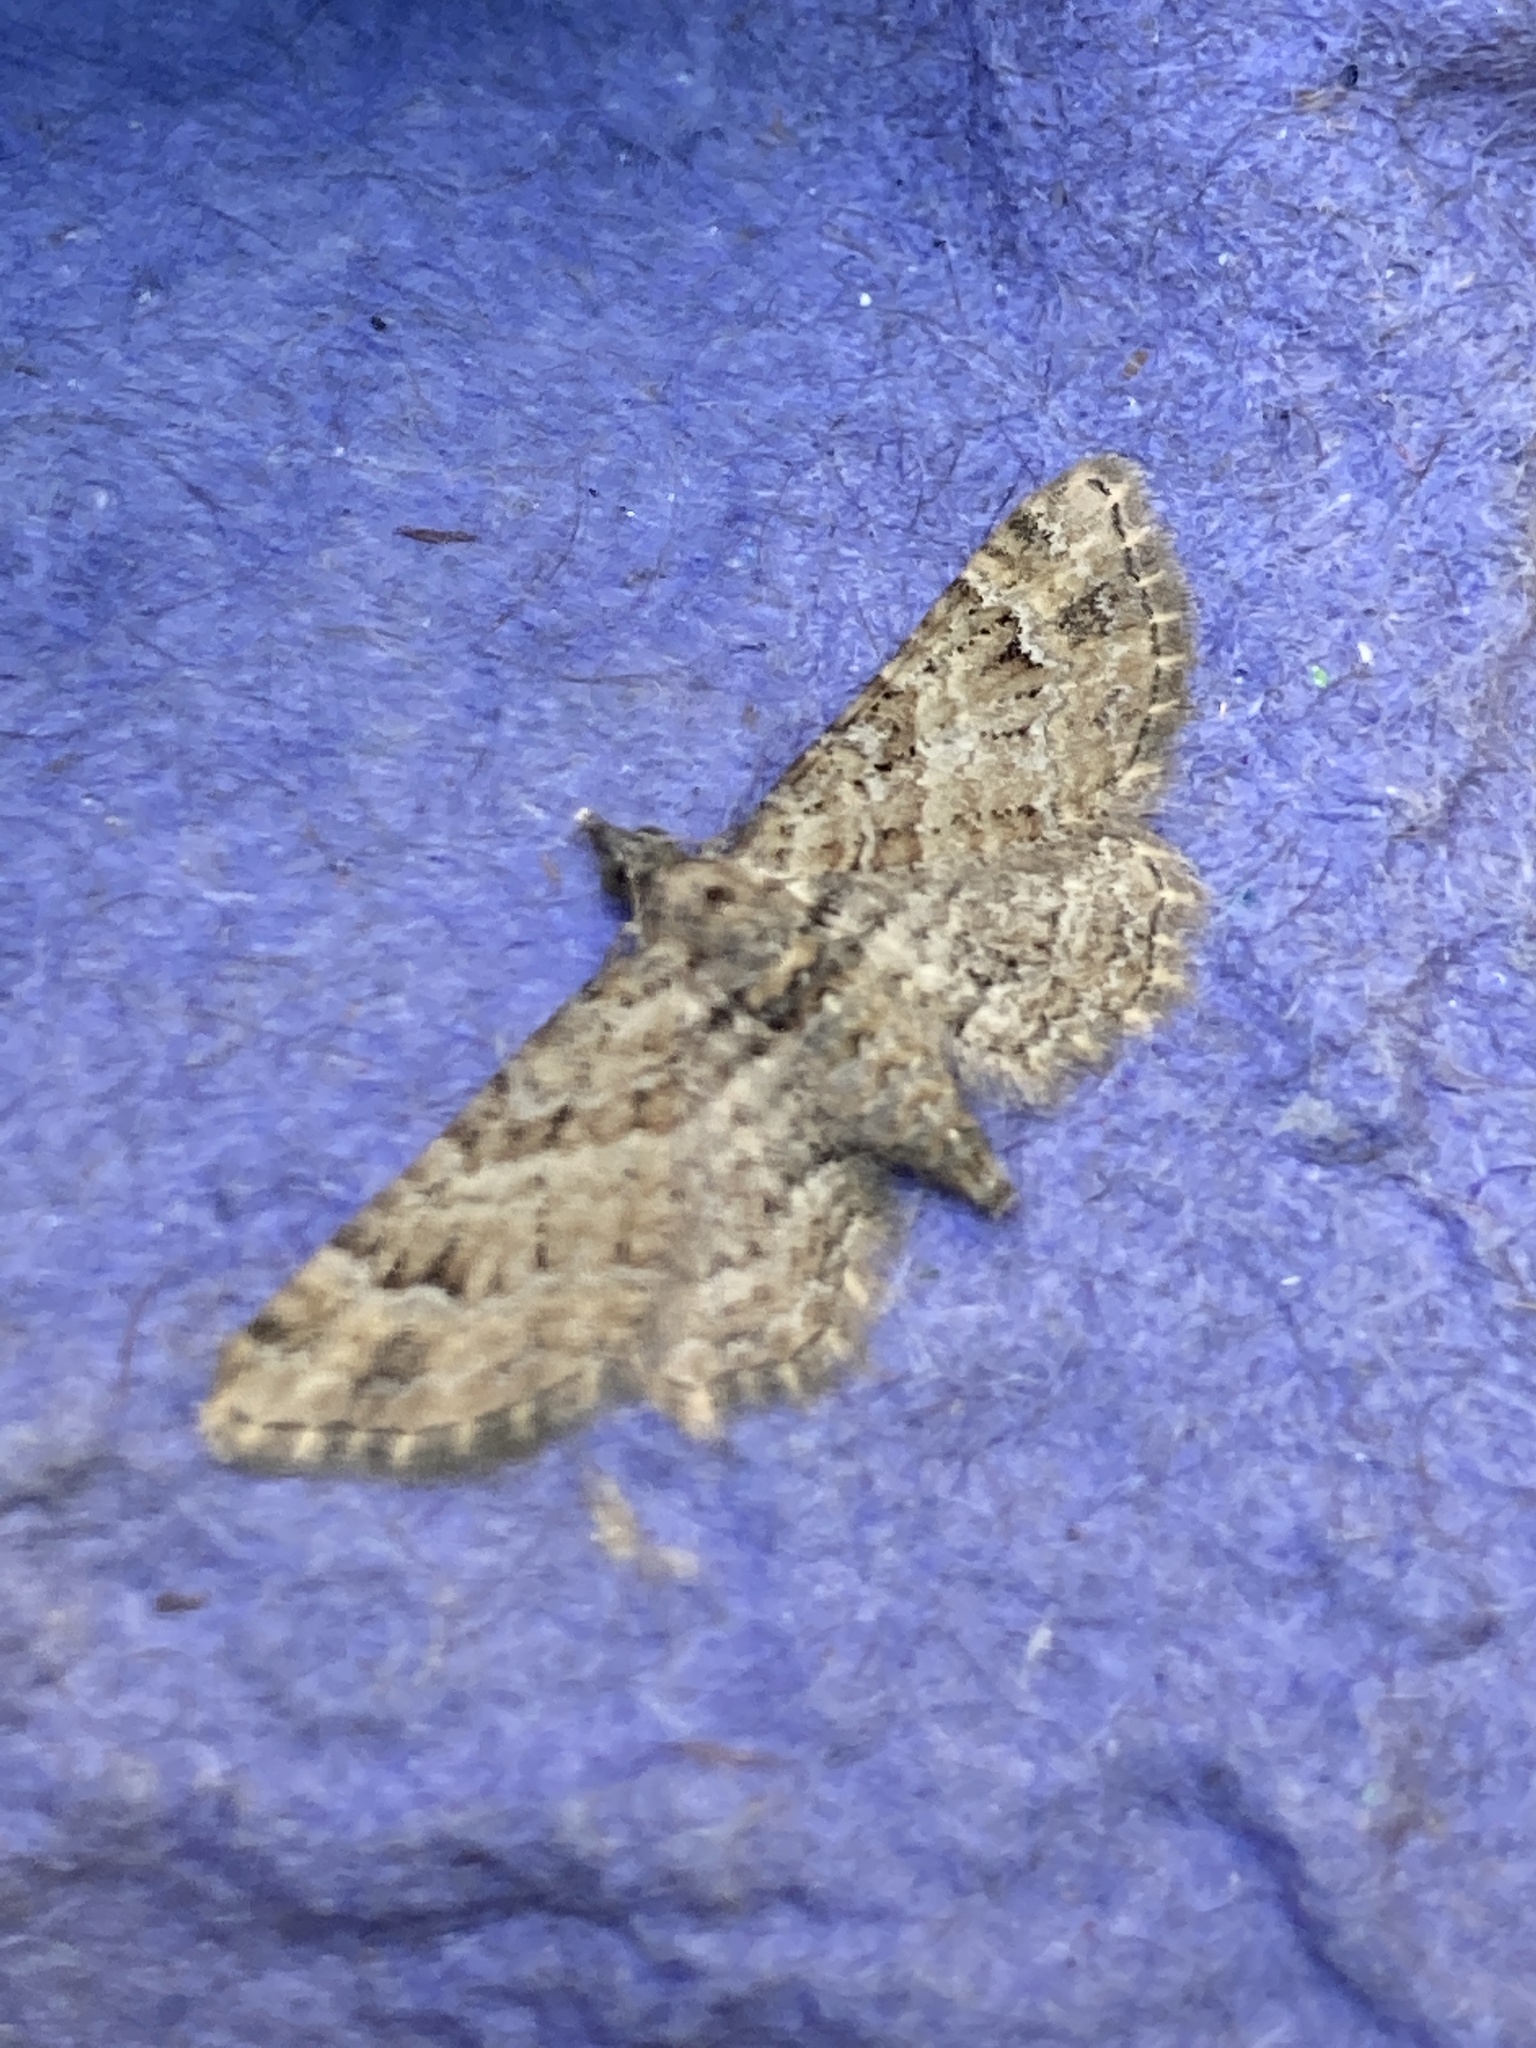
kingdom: Animalia
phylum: Arthropoda
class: Insecta
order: Lepidoptera
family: Geometridae
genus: Gymnoscelis
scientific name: Gymnoscelis rufifasciata
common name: Double-striped pug
